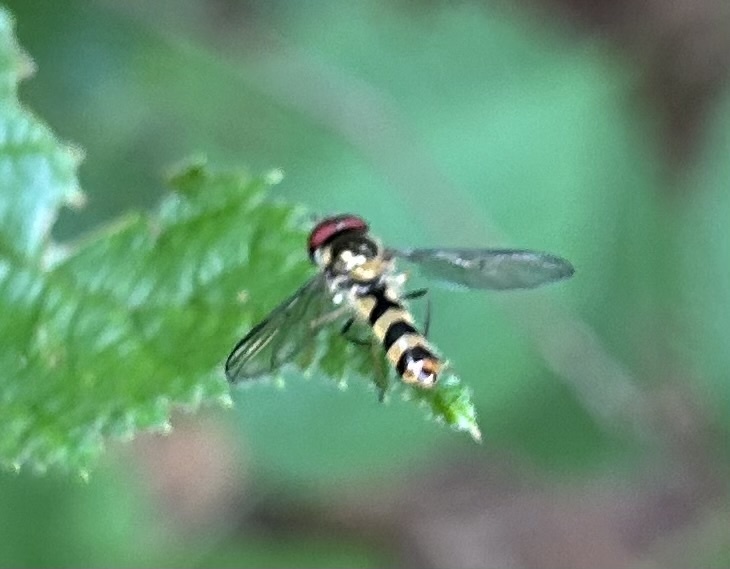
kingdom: Animalia
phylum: Arthropoda
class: Insecta
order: Diptera
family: Syrphidae
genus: Meliscaeva
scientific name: Meliscaeva cinctella
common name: American thintail fly
